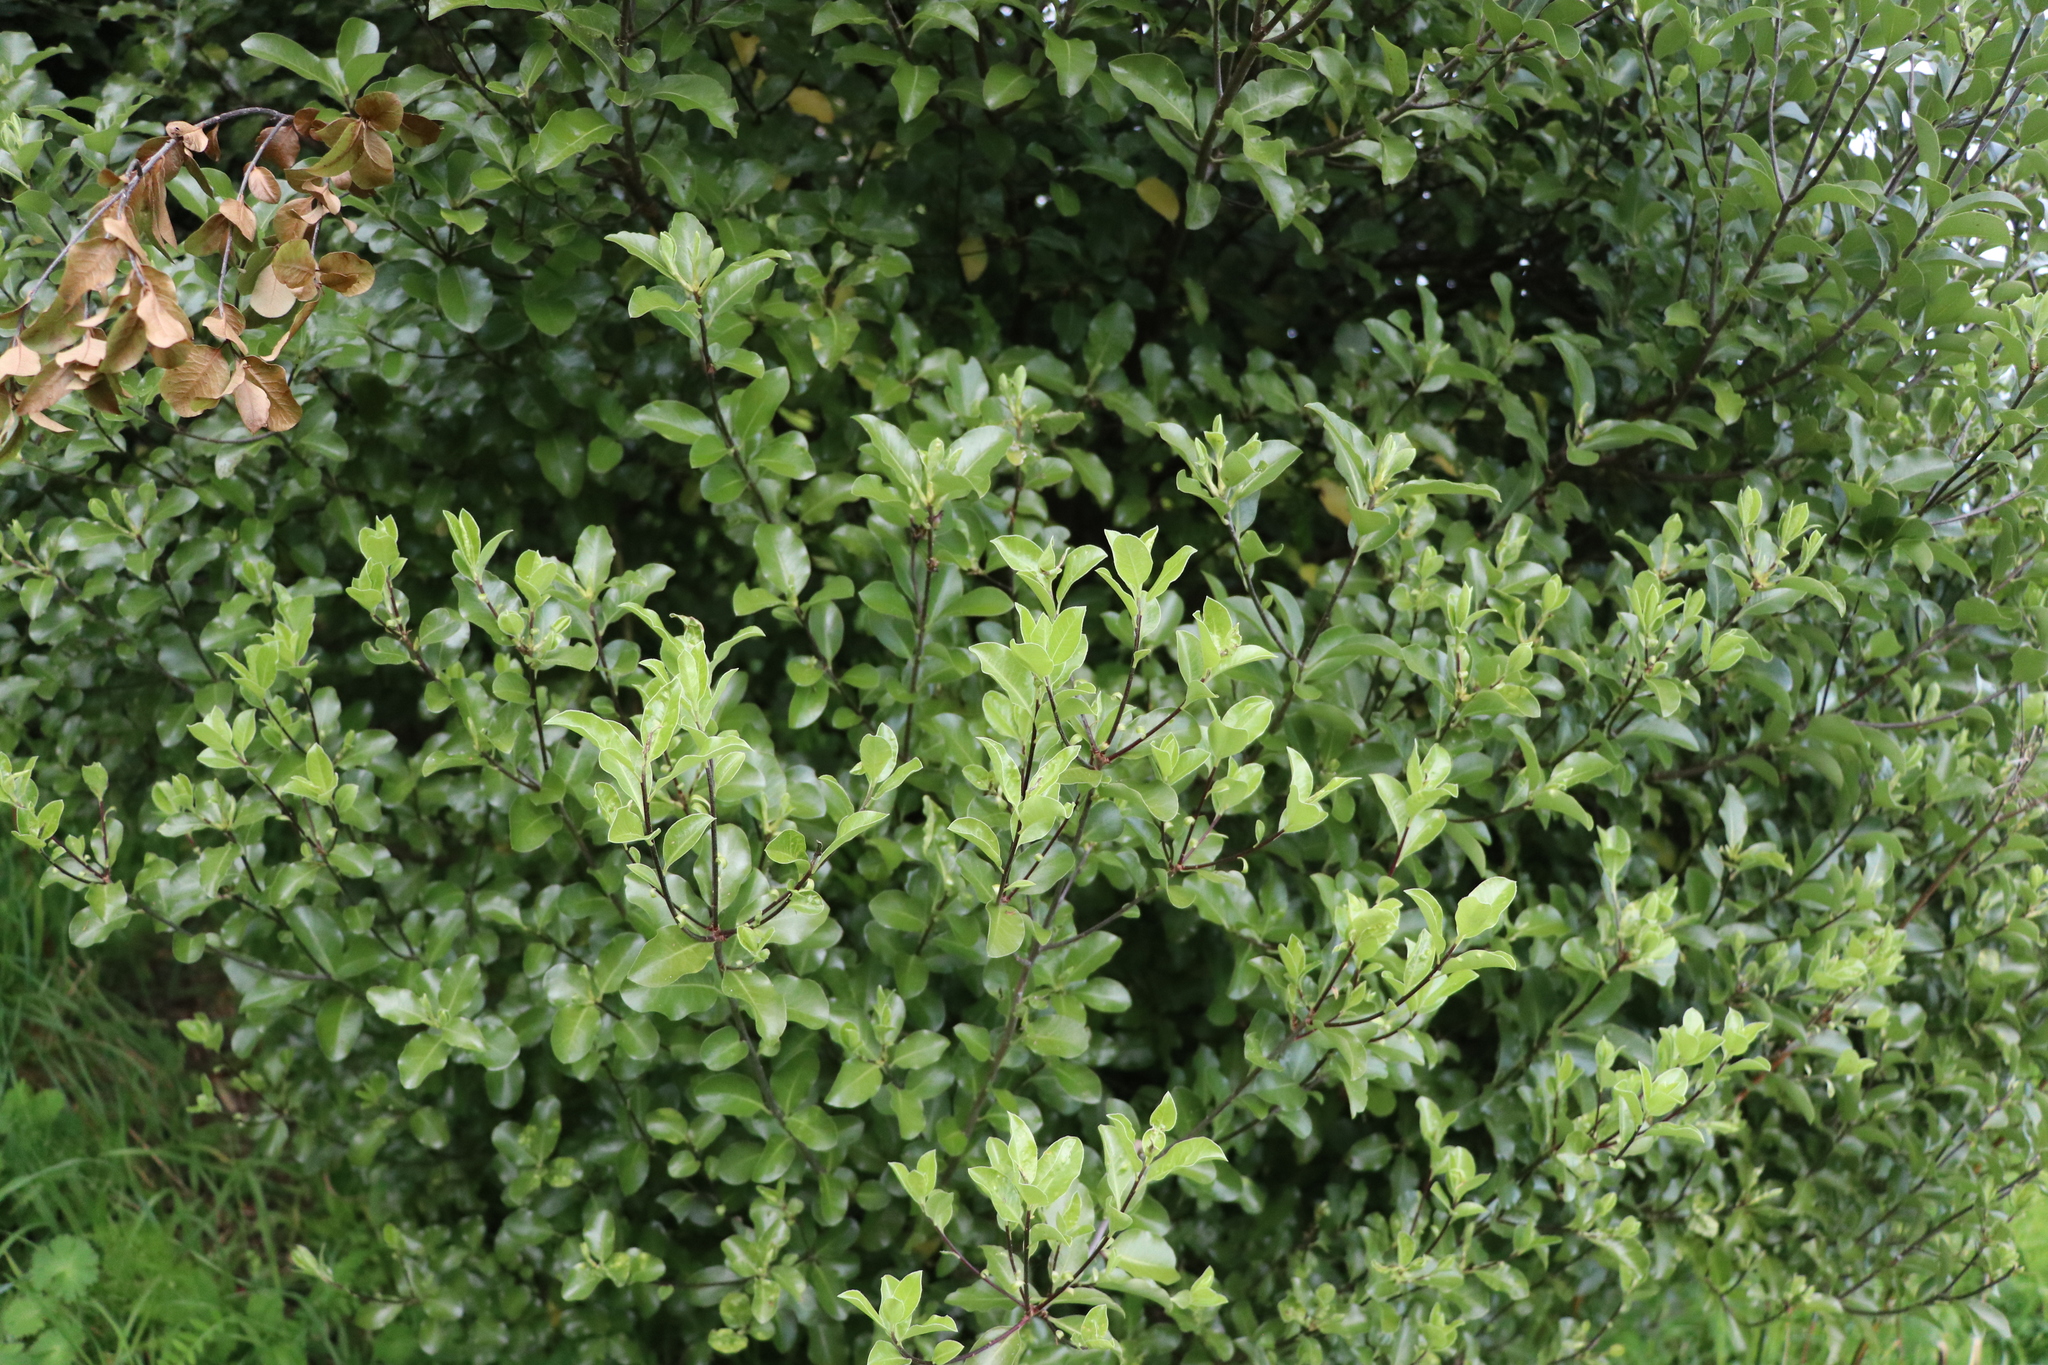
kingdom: Plantae
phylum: Tracheophyta
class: Magnoliopsida
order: Apiales
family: Pittosporaceae
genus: Pittosporum
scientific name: Pittosporum tenuifolium
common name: Kohuhu
